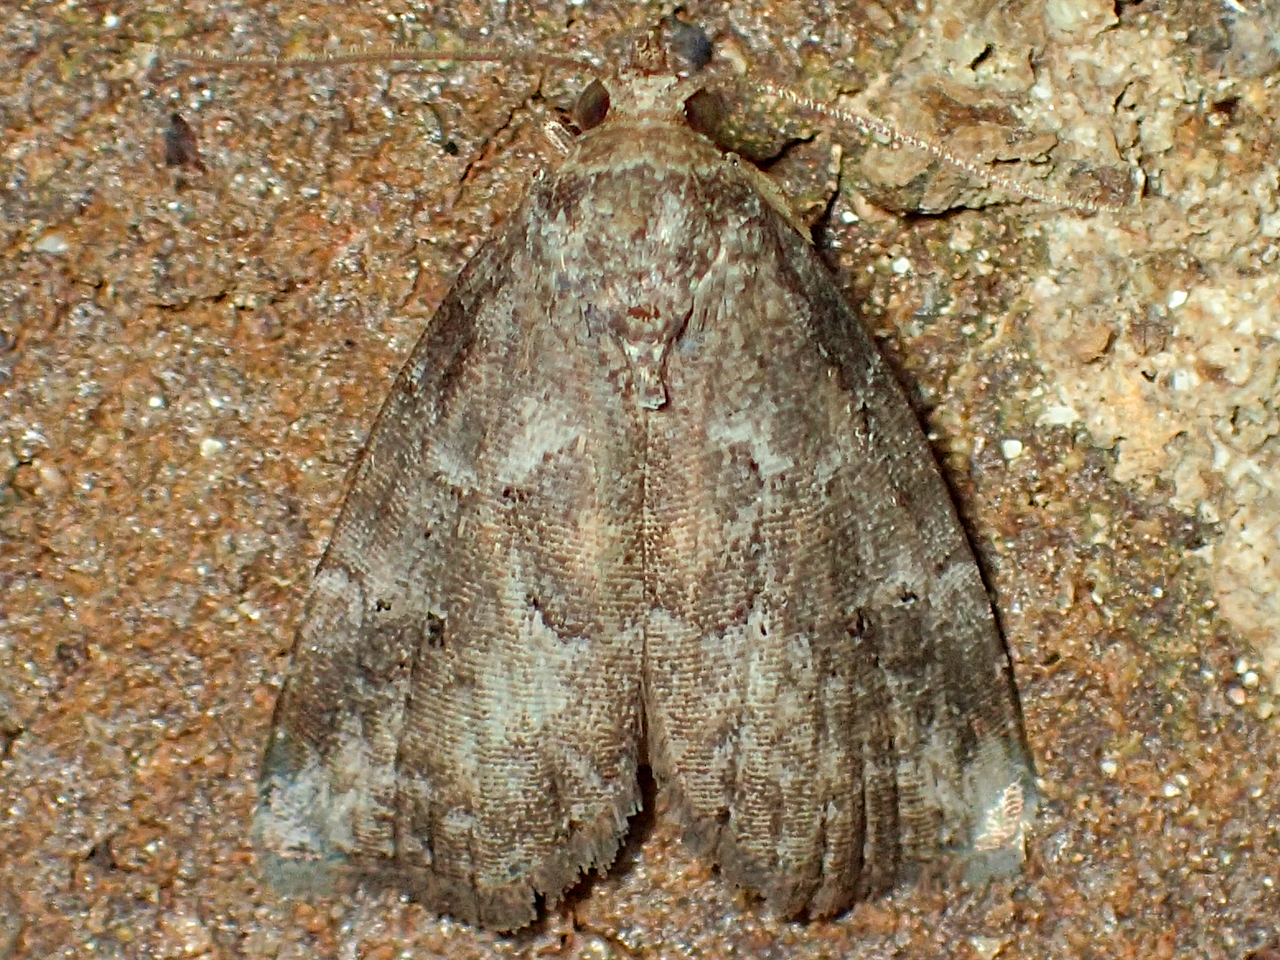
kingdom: Animalia
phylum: Arthropoda
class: Insecta
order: Lepidoptera
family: Erebidae
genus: Hyperstrotia
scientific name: Hyperstrotia nana
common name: White-lined graylet
